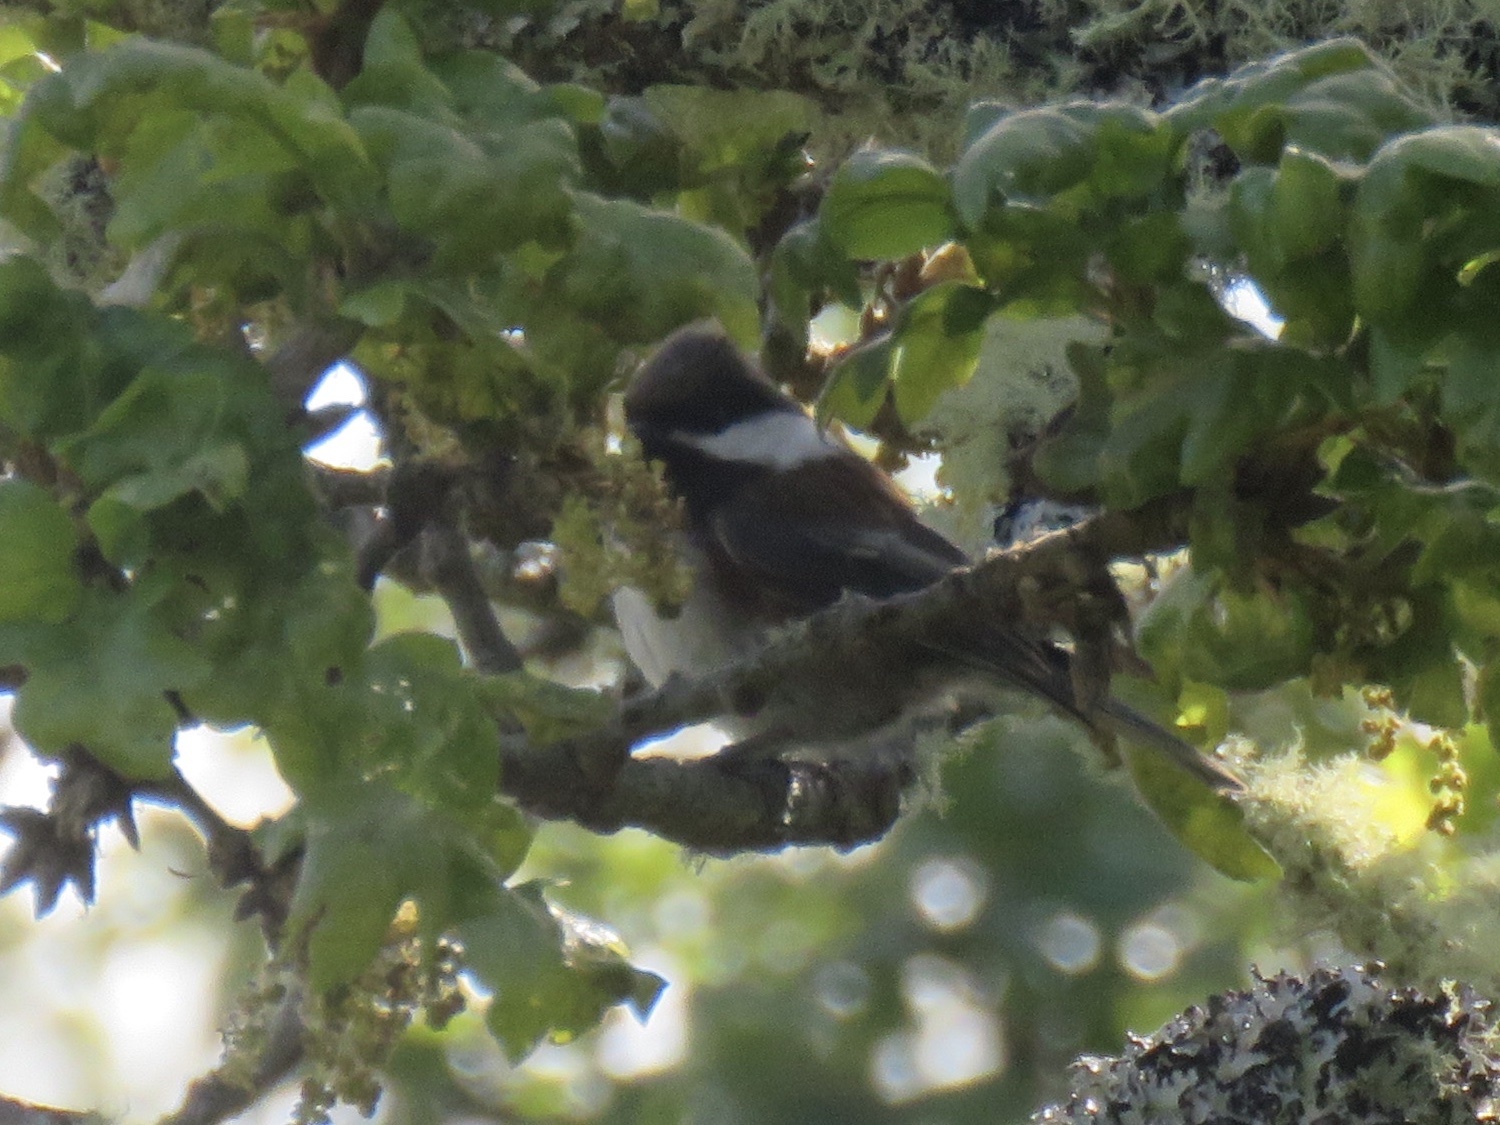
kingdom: Animalia
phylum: Chordata
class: Aves
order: Passeriformes
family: Paridae
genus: Poecile
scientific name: Poecile rufescens
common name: Chestnut-backed chickadee
